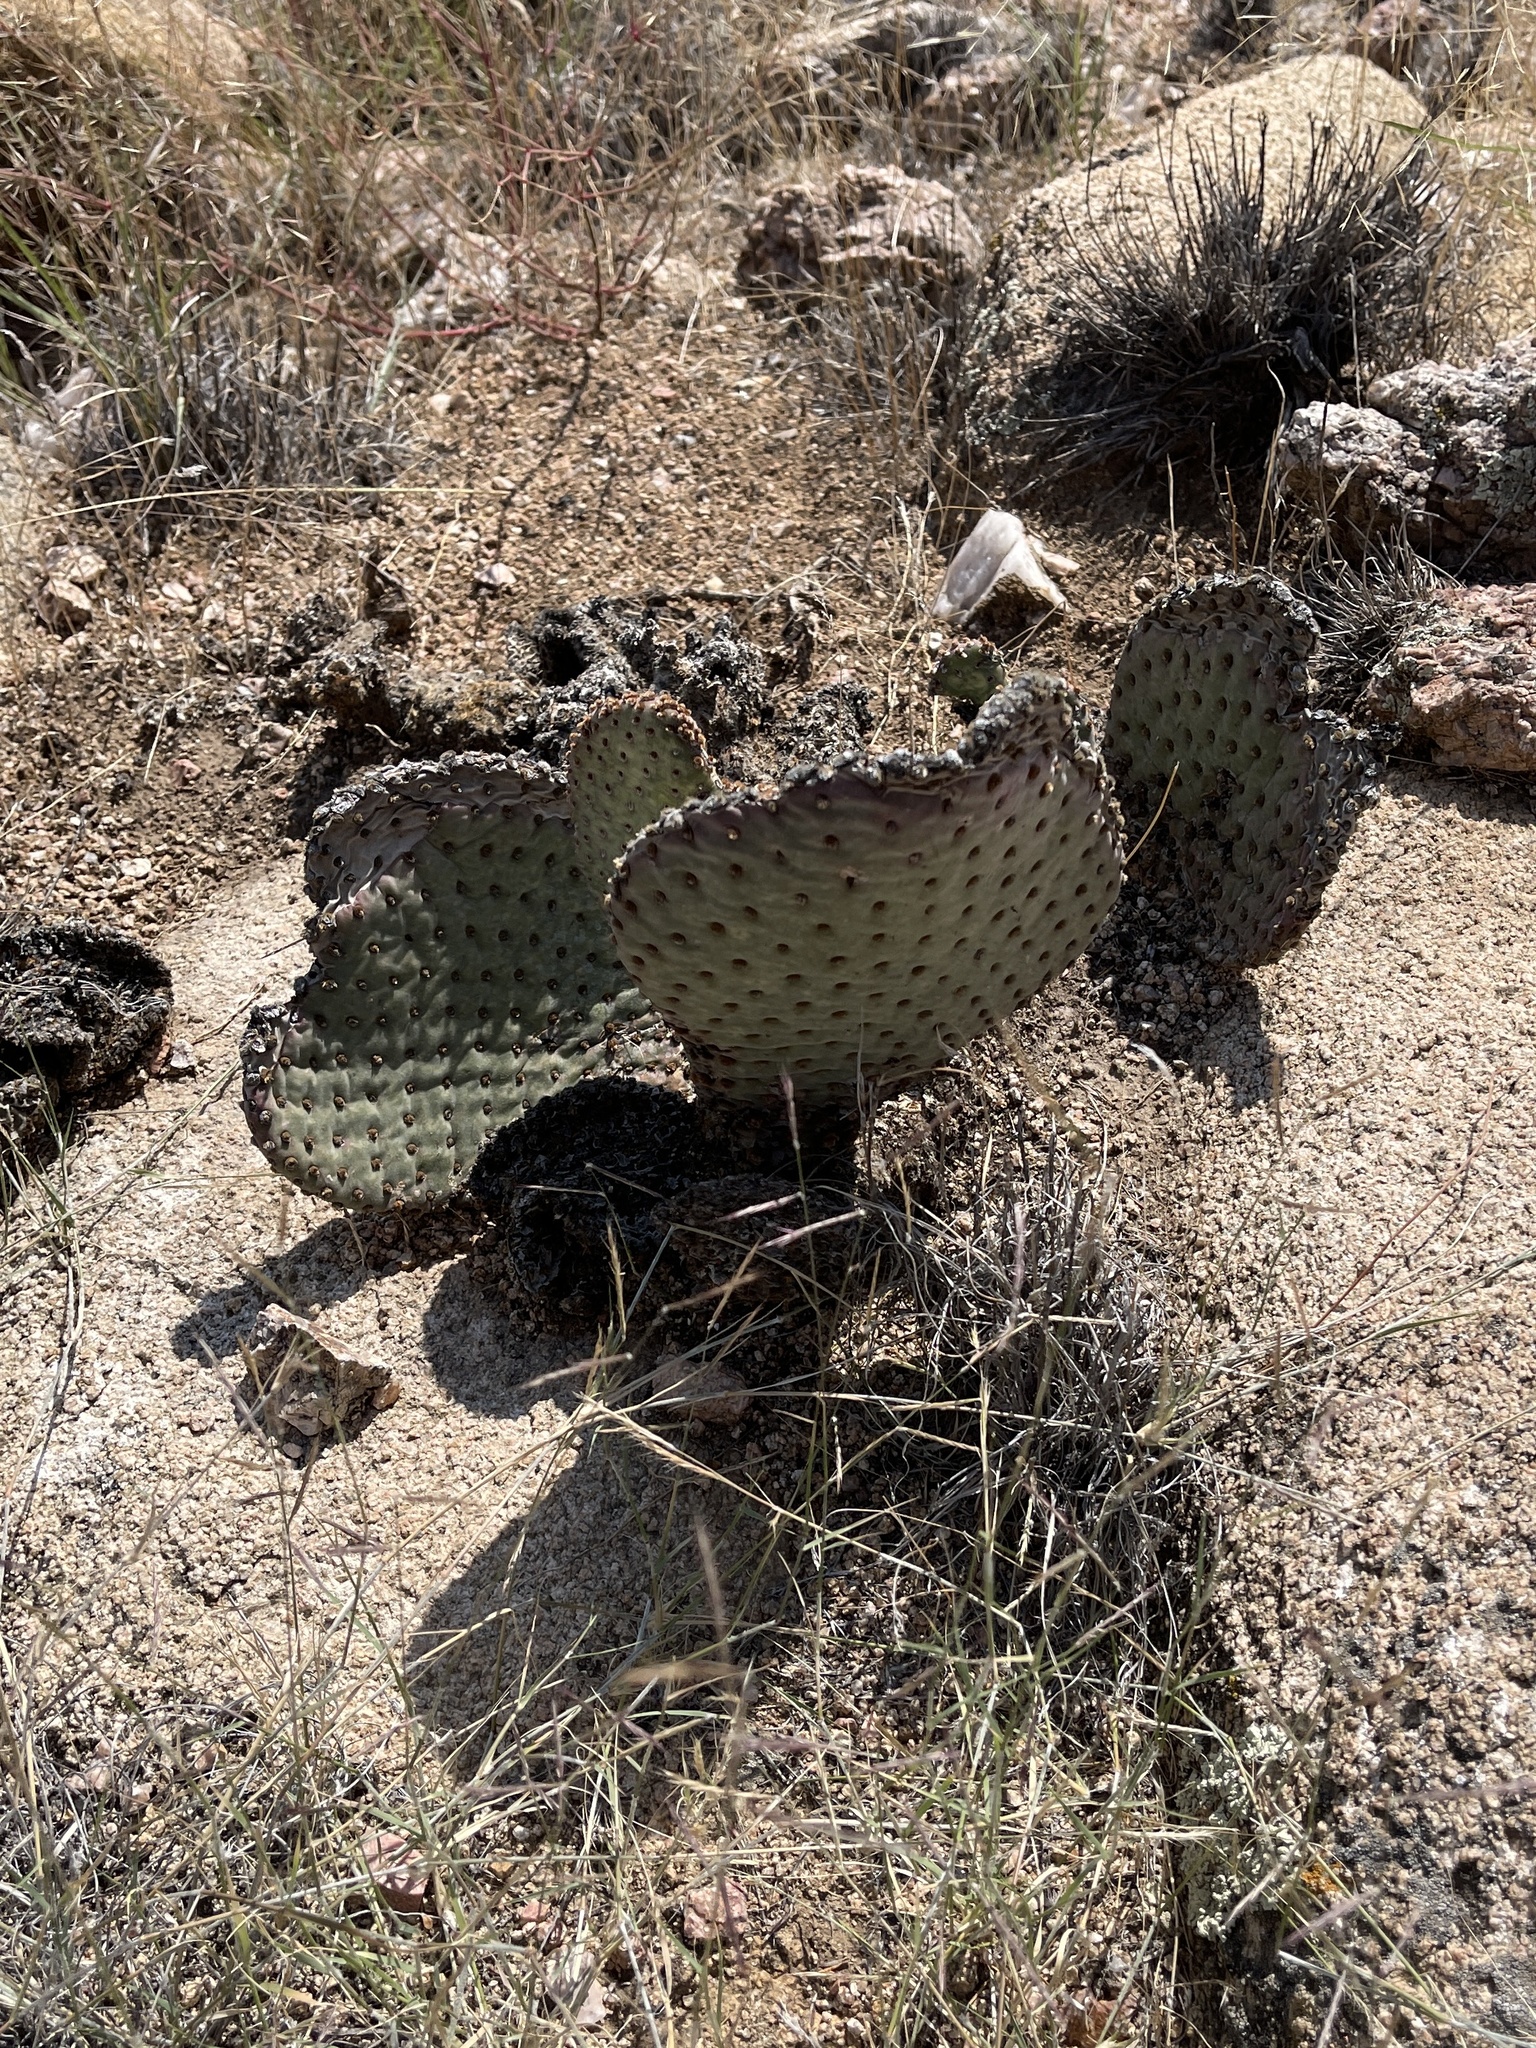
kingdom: Plantae
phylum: Tracheophyta
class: Magnoliopsida
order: Caryophyllales
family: Cactaceae
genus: Opuntia
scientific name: Opuntia basilaris
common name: Beavertail prickly-pear
